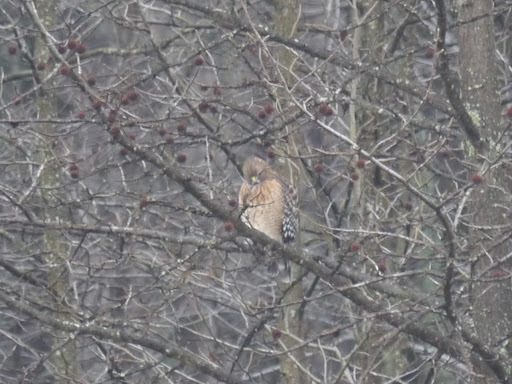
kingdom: Animalia
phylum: Chordata
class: Aves
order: Accipitriformes
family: Accipitridae
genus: Buteo
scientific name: Buteo lineatus
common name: Red-shouldered hawk
